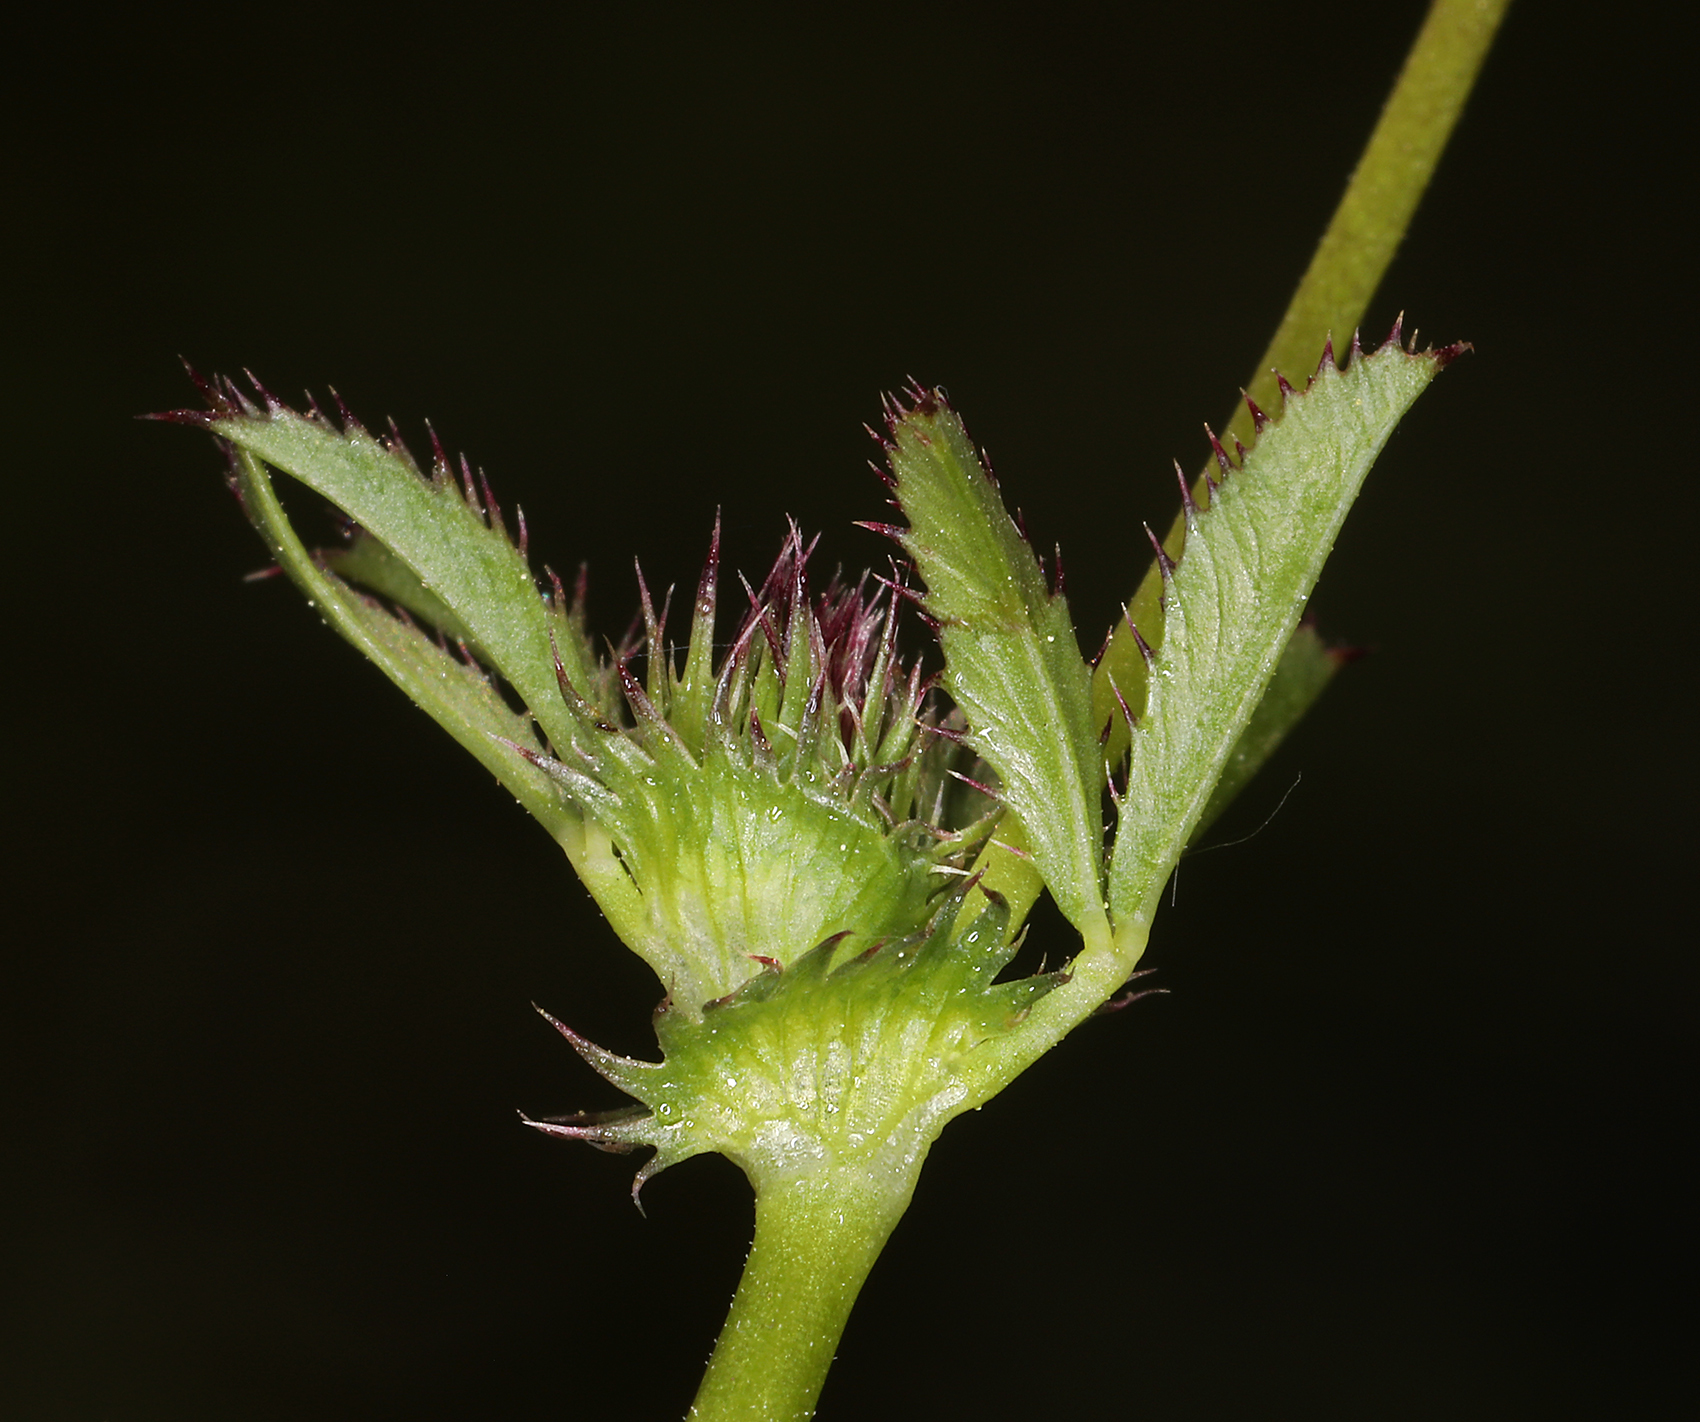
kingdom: Plantae
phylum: Tracheophyta
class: Magnoliopsida
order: Fabales
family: Fabaceae
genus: Trifolium
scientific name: Trifolium variegatum
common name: Whitetip clover
